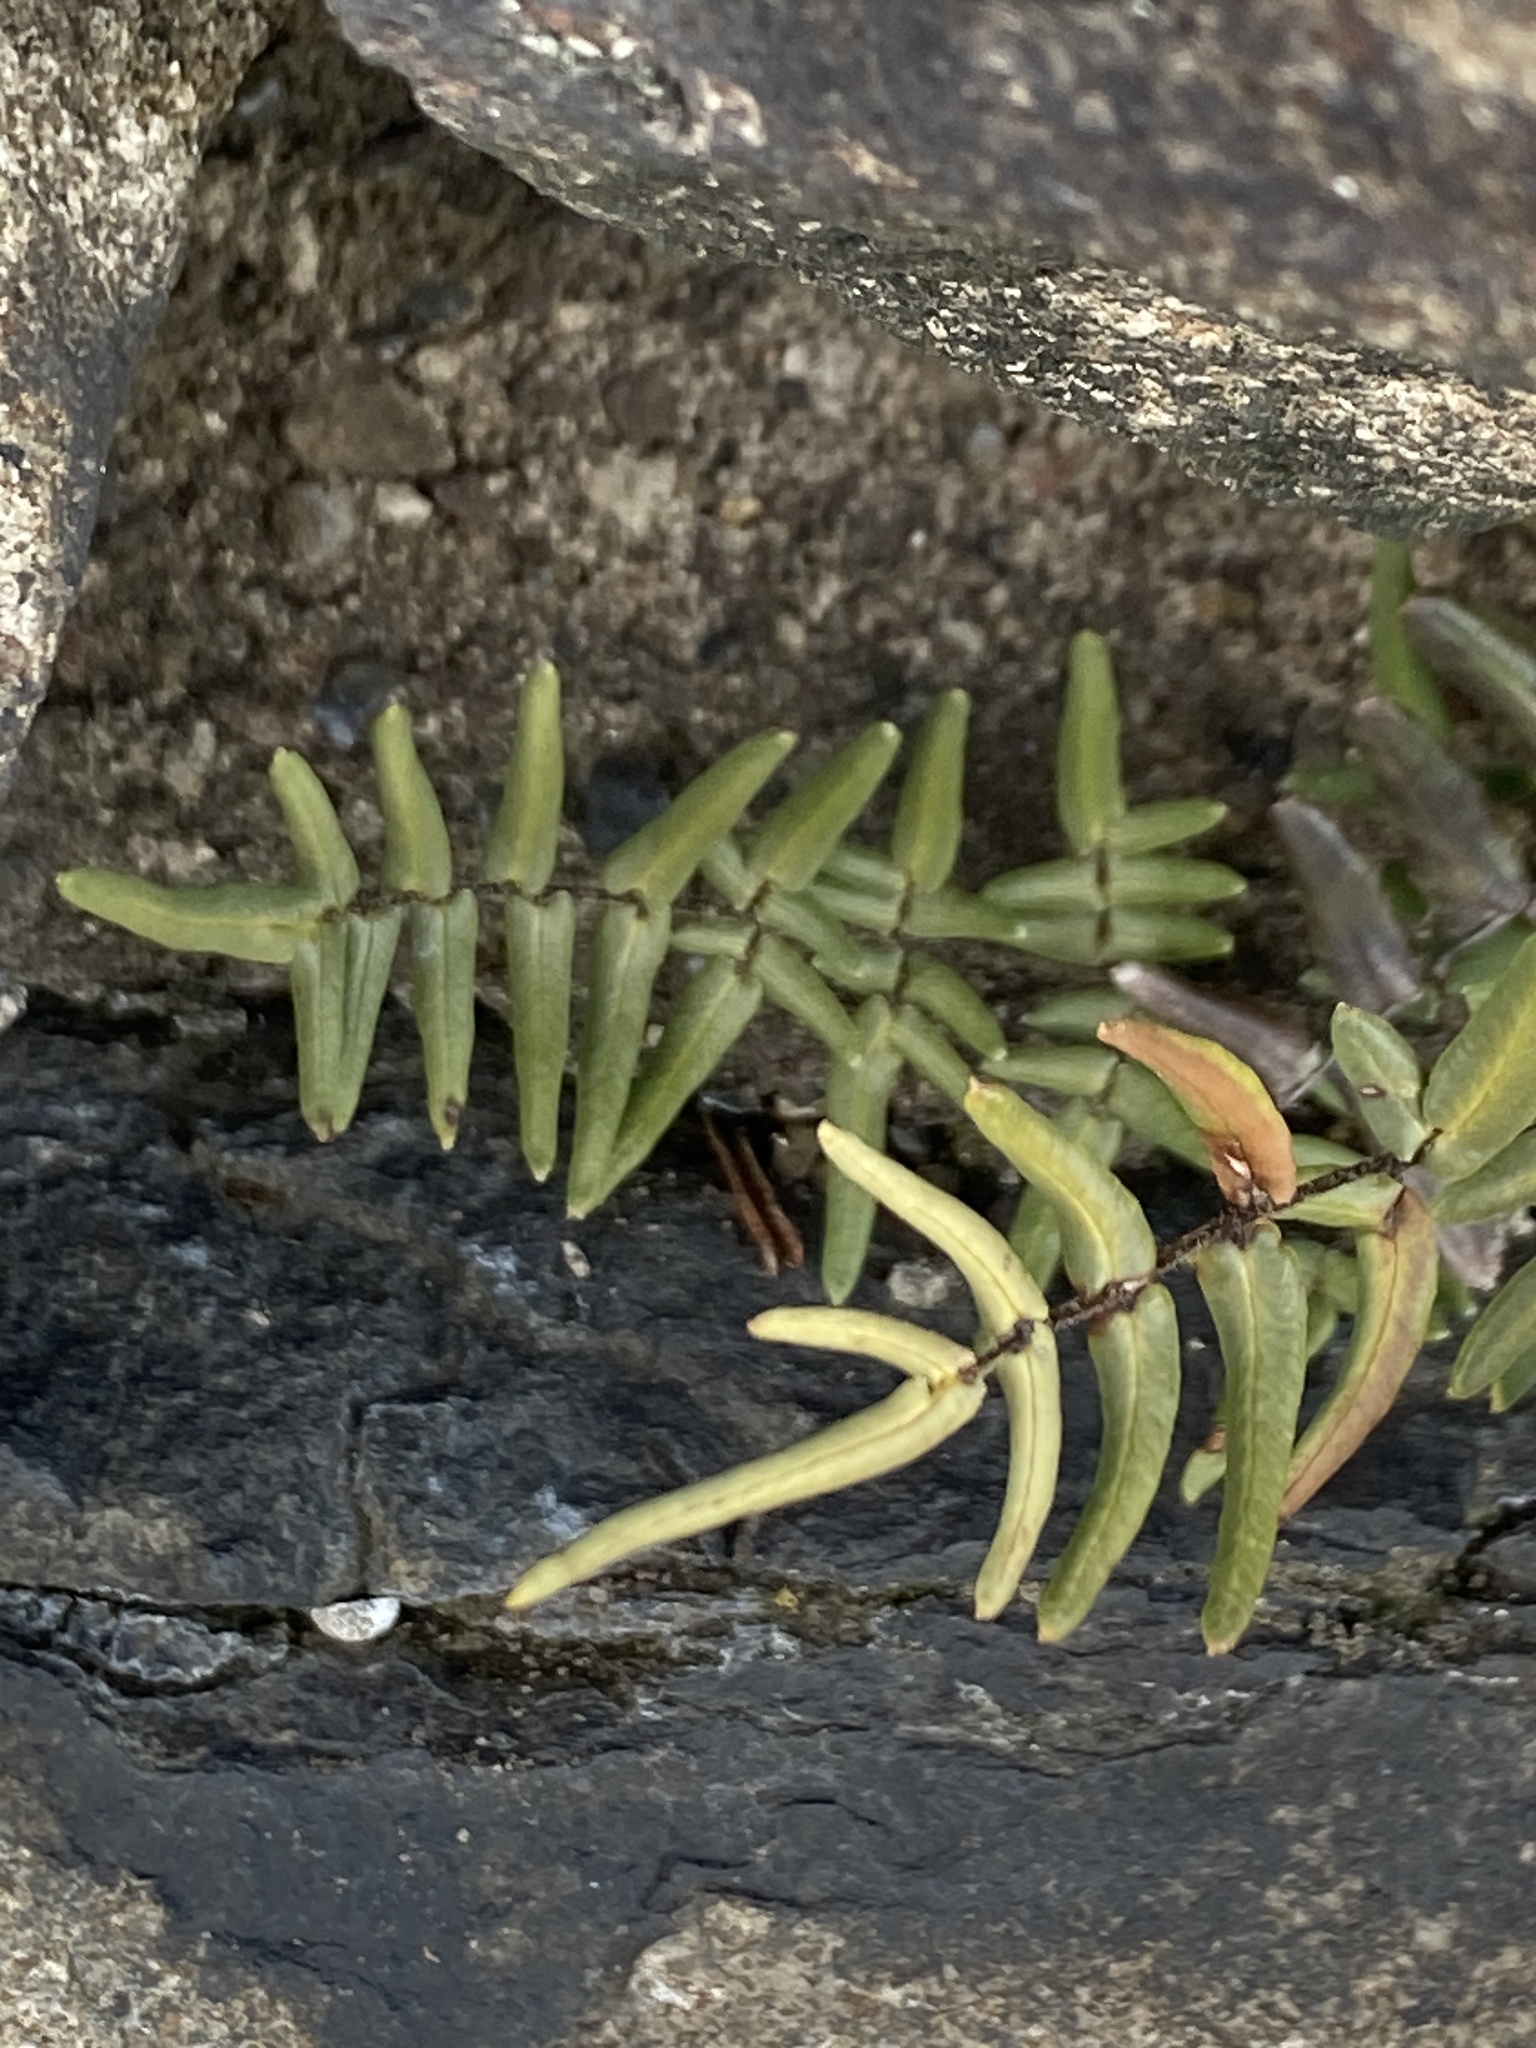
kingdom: Plantae
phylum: Tracheophyta
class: Polypodiopsida
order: Polypodiales
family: Pteridaceae
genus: Pellaea
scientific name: Pellaea atropurpurea
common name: Hairy cliffbrake
